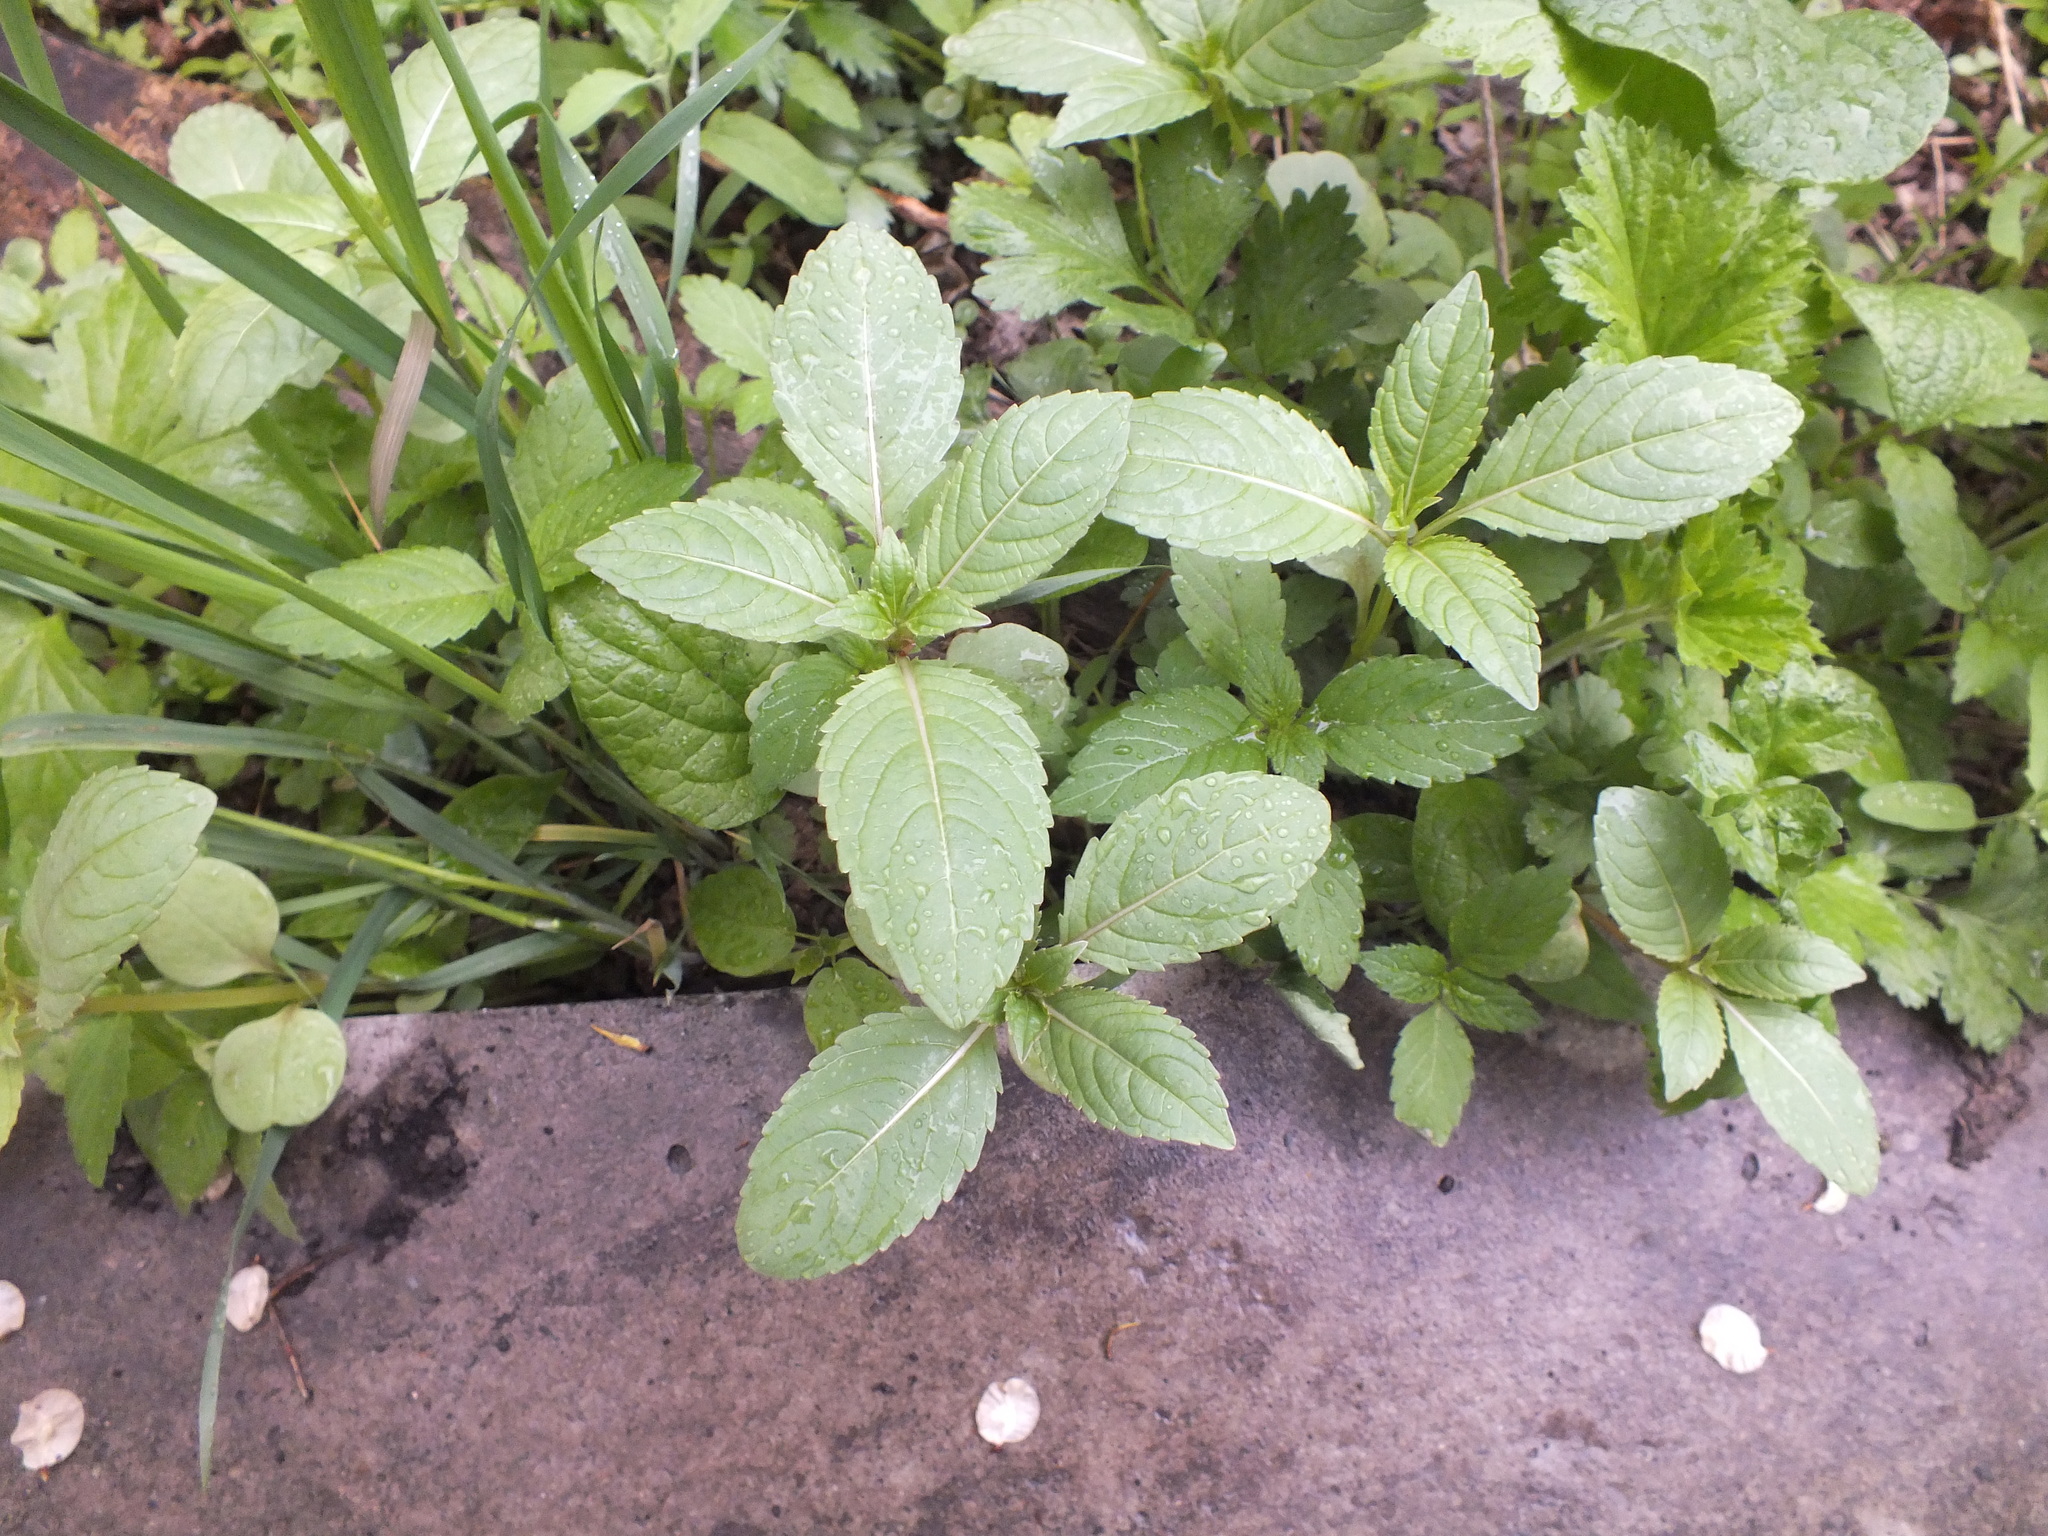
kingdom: Plantae
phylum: Tracheophyta
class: Magnoliopsida
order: Ericales
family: Balsaminaceae
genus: Impatiens
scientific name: Impatiens glandulifera
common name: Himalayan balsam
